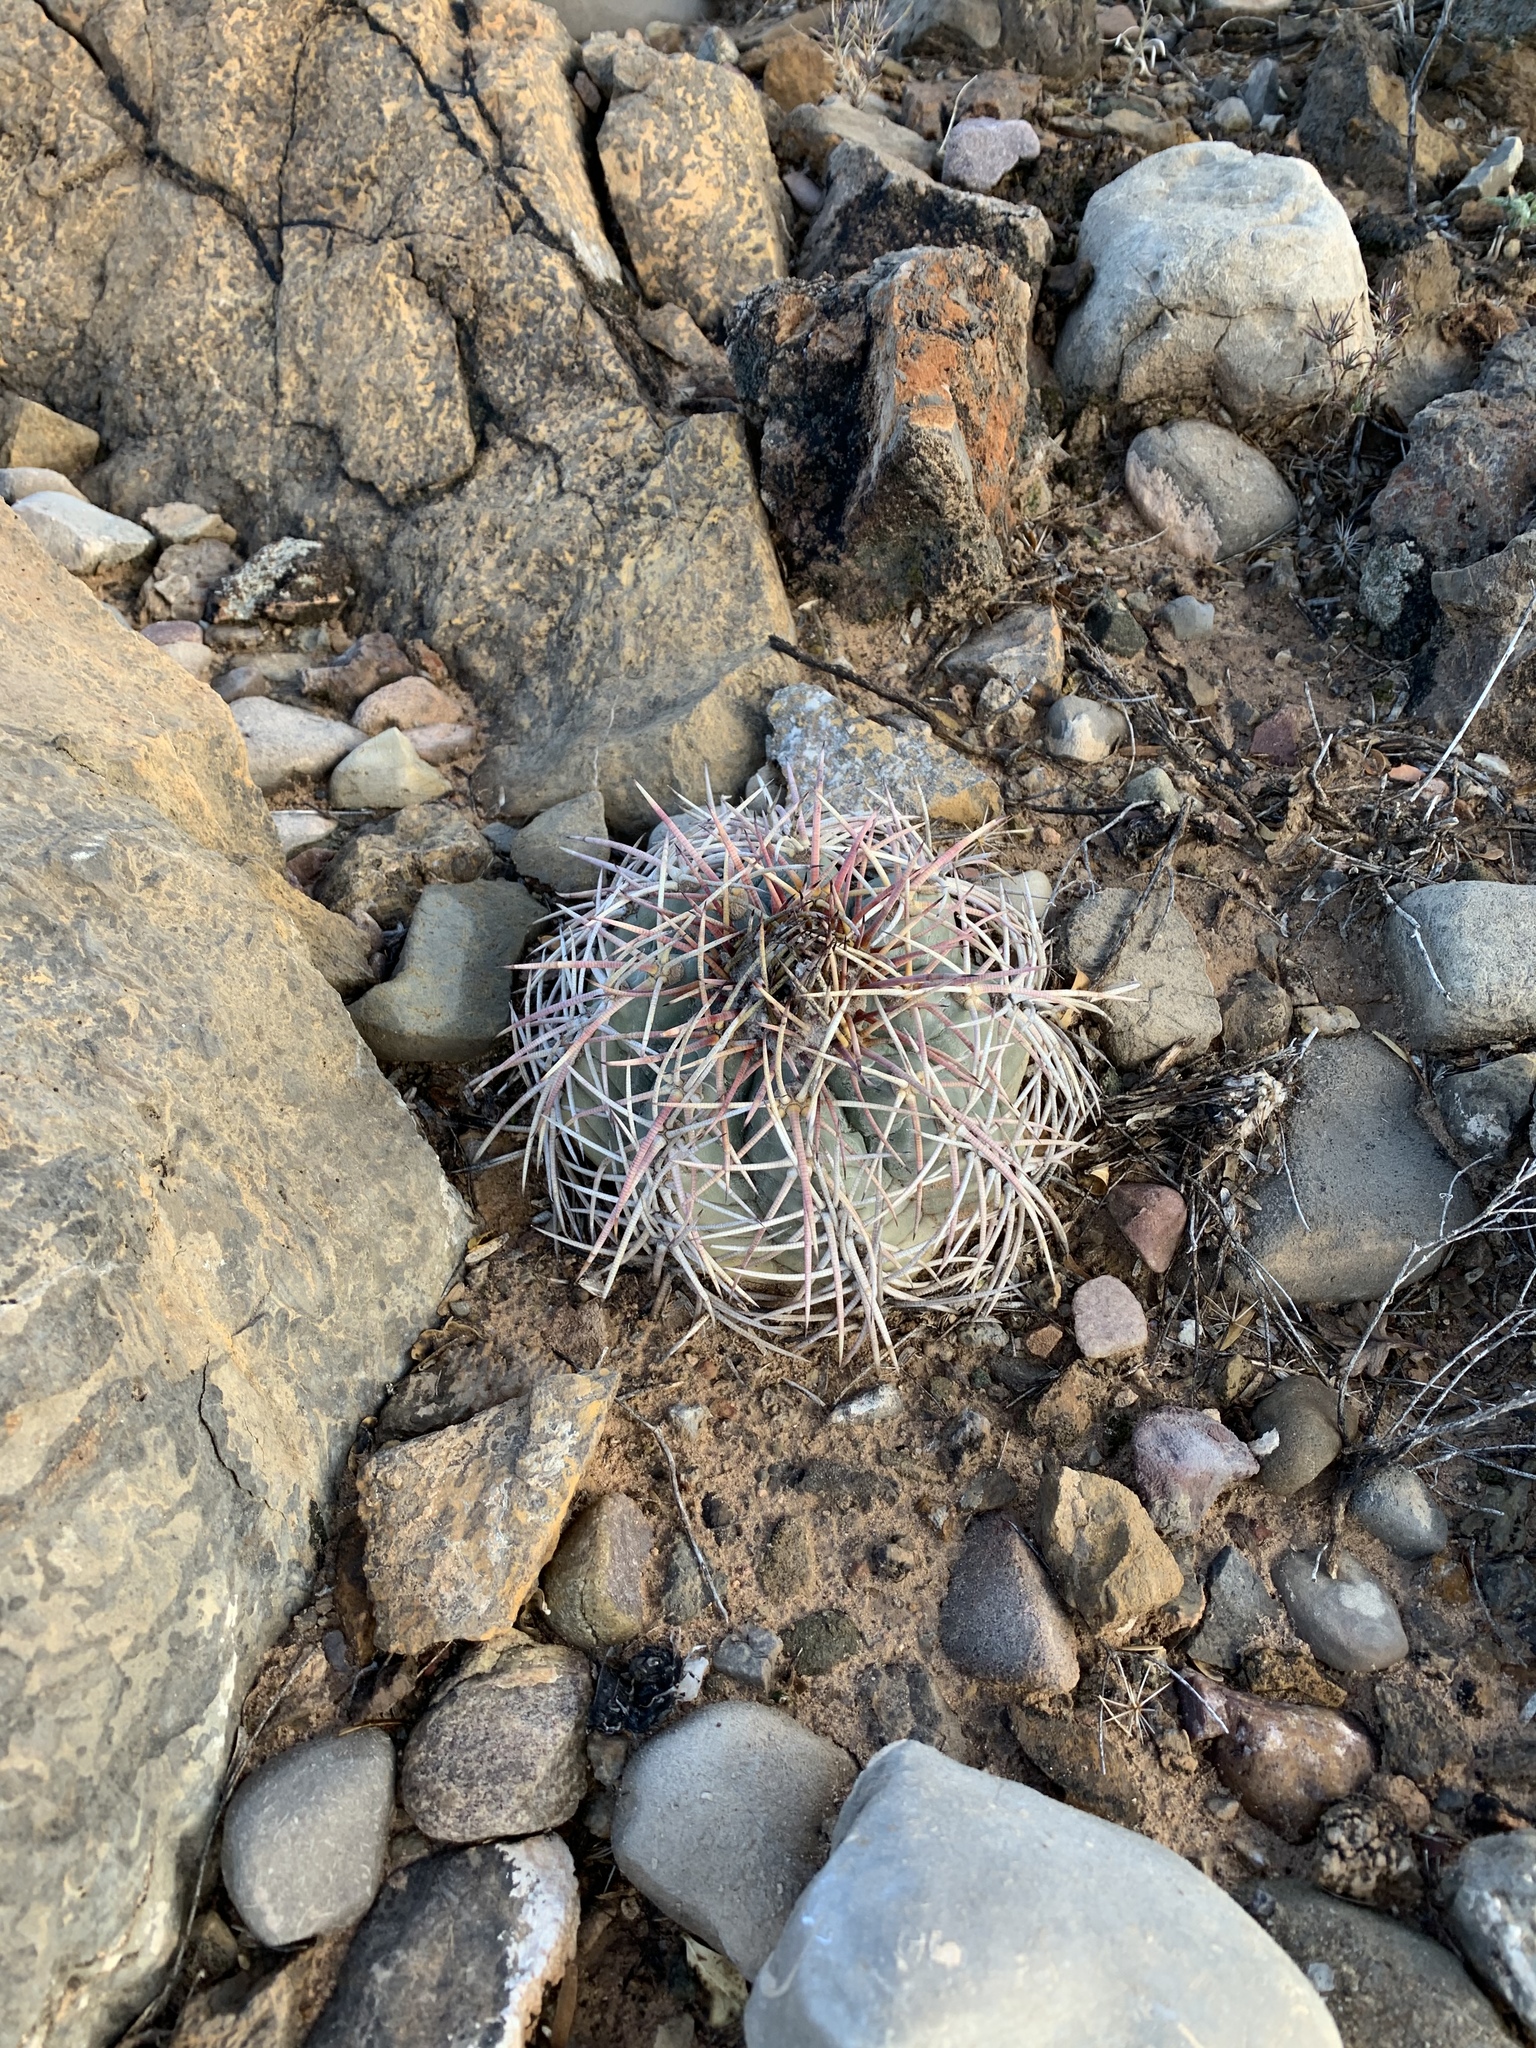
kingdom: Plantae
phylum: Tracheophyta
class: Magnoliopsida
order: Caryophyllales
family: Cactaceae
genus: Echinocactus
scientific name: Echinocactus horizonthalonius
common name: Devilshead
